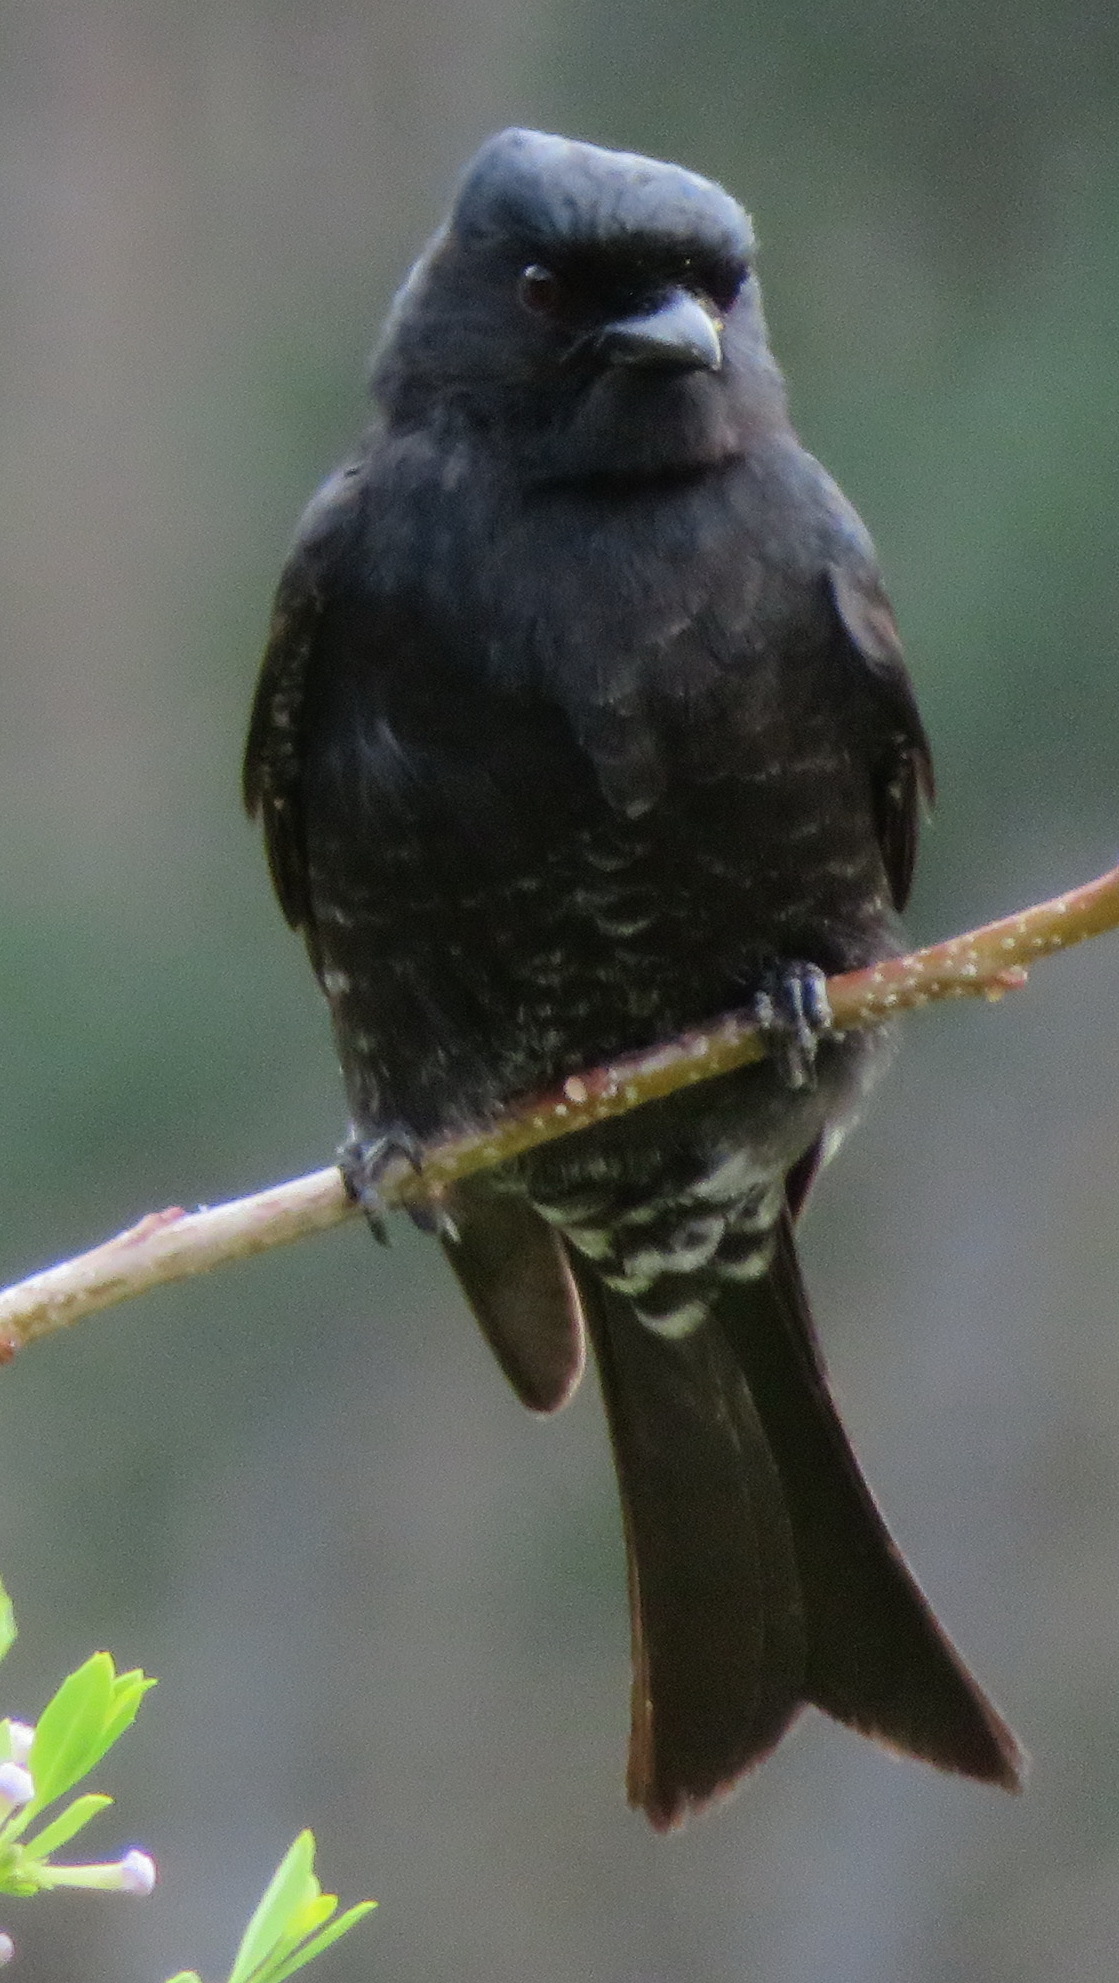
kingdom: Animalia
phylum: Chordata
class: Aves
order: Passeriformes
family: Dicruridae
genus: Dicrurus
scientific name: Dicrurus adsimilis
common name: Fork-tailed drongo
